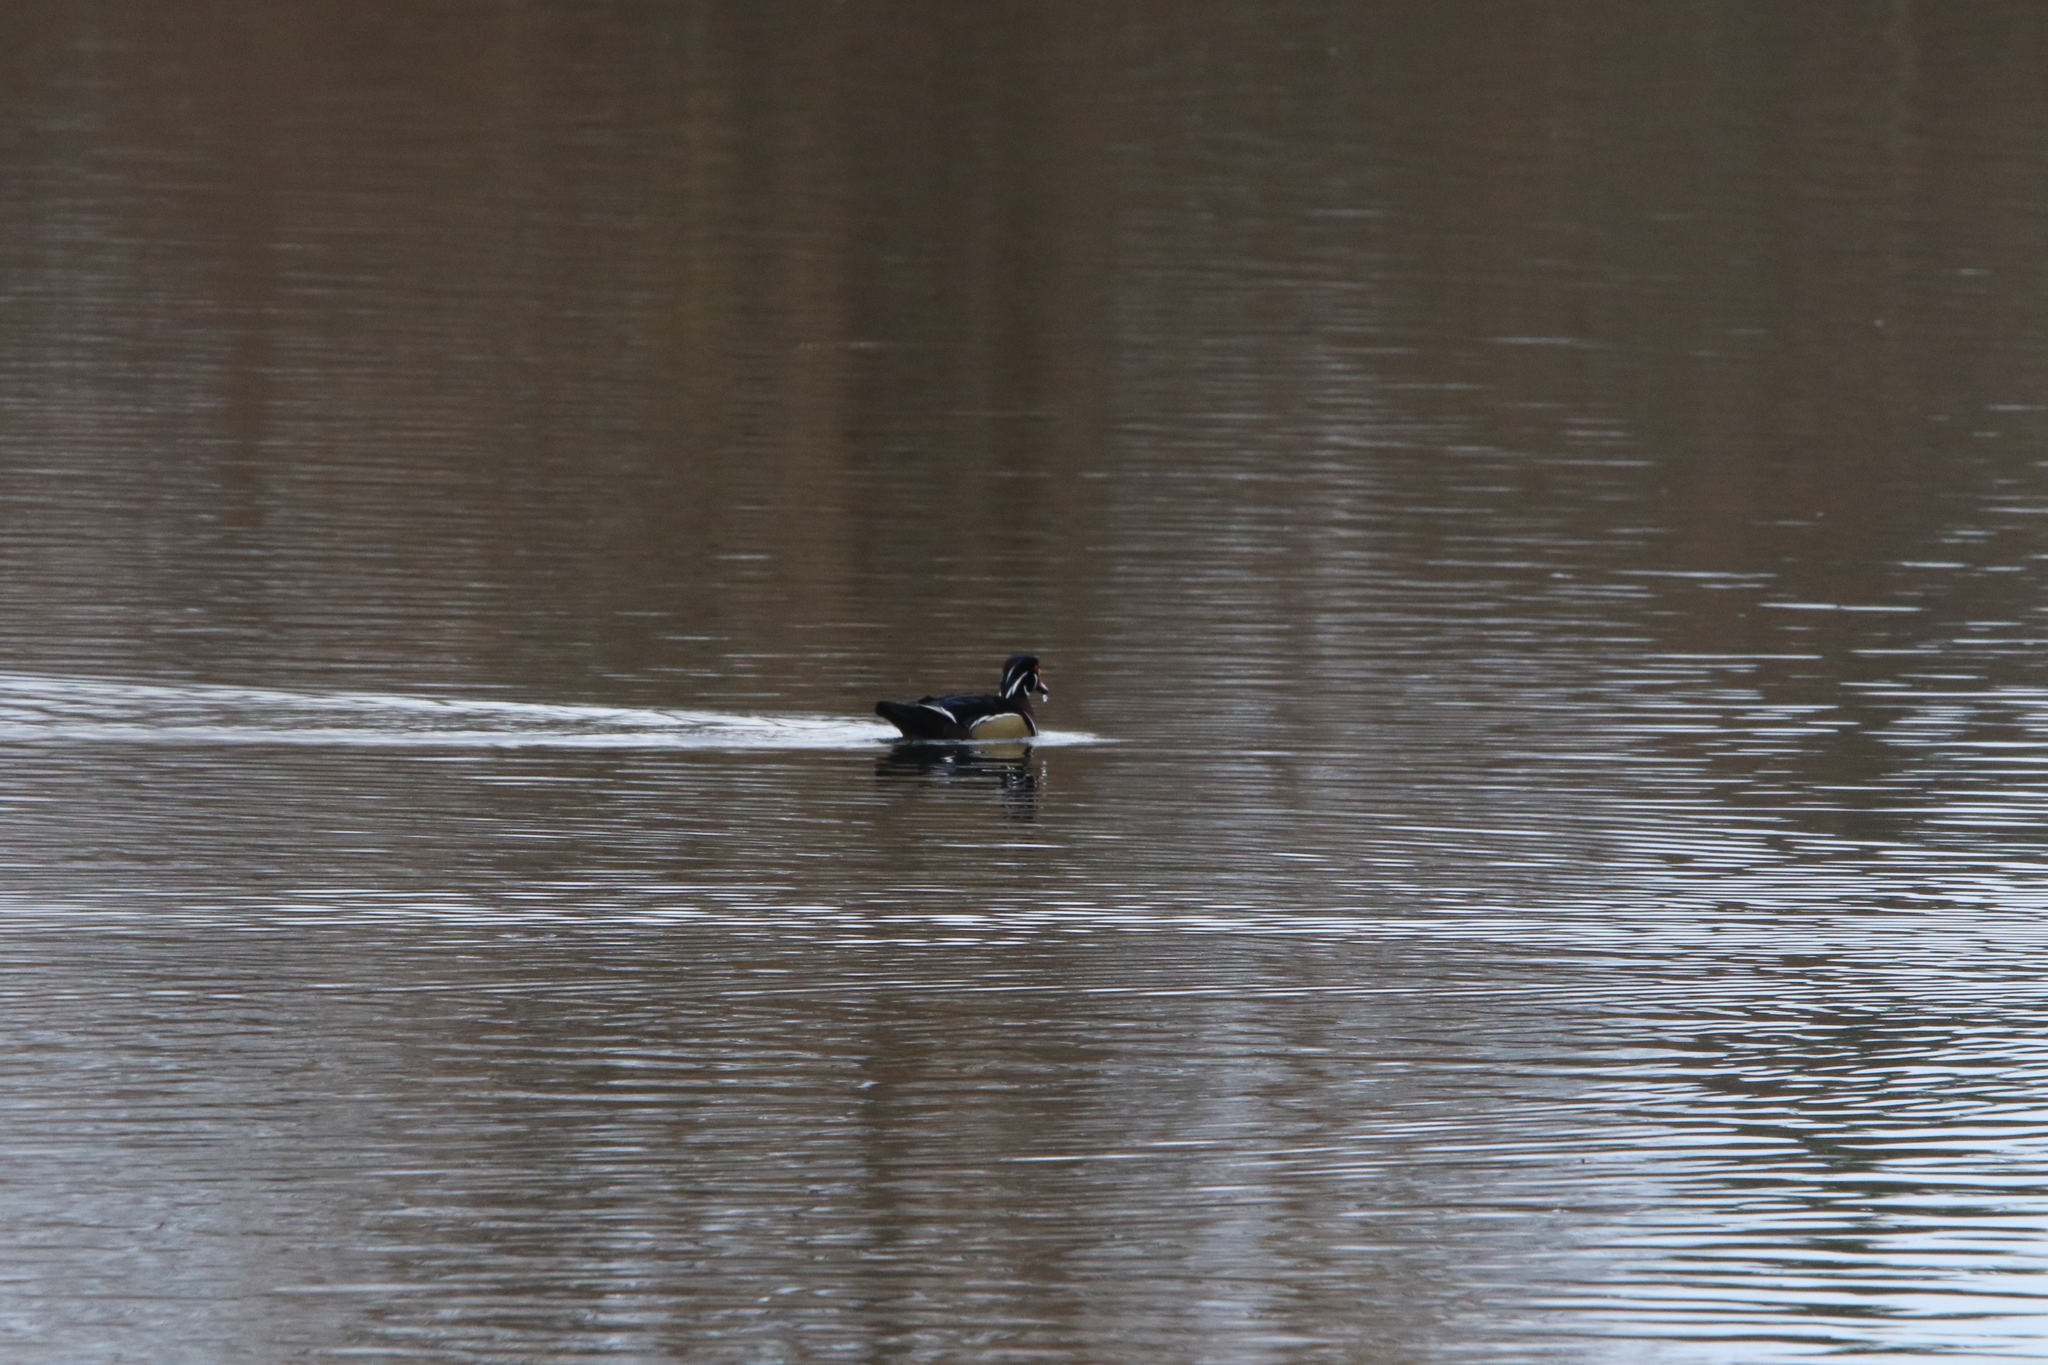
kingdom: Animalia
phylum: Chordata
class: Aves
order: Anseriformes
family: Anatidae
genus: Aix
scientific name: Aix sponsa
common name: Wood duck
